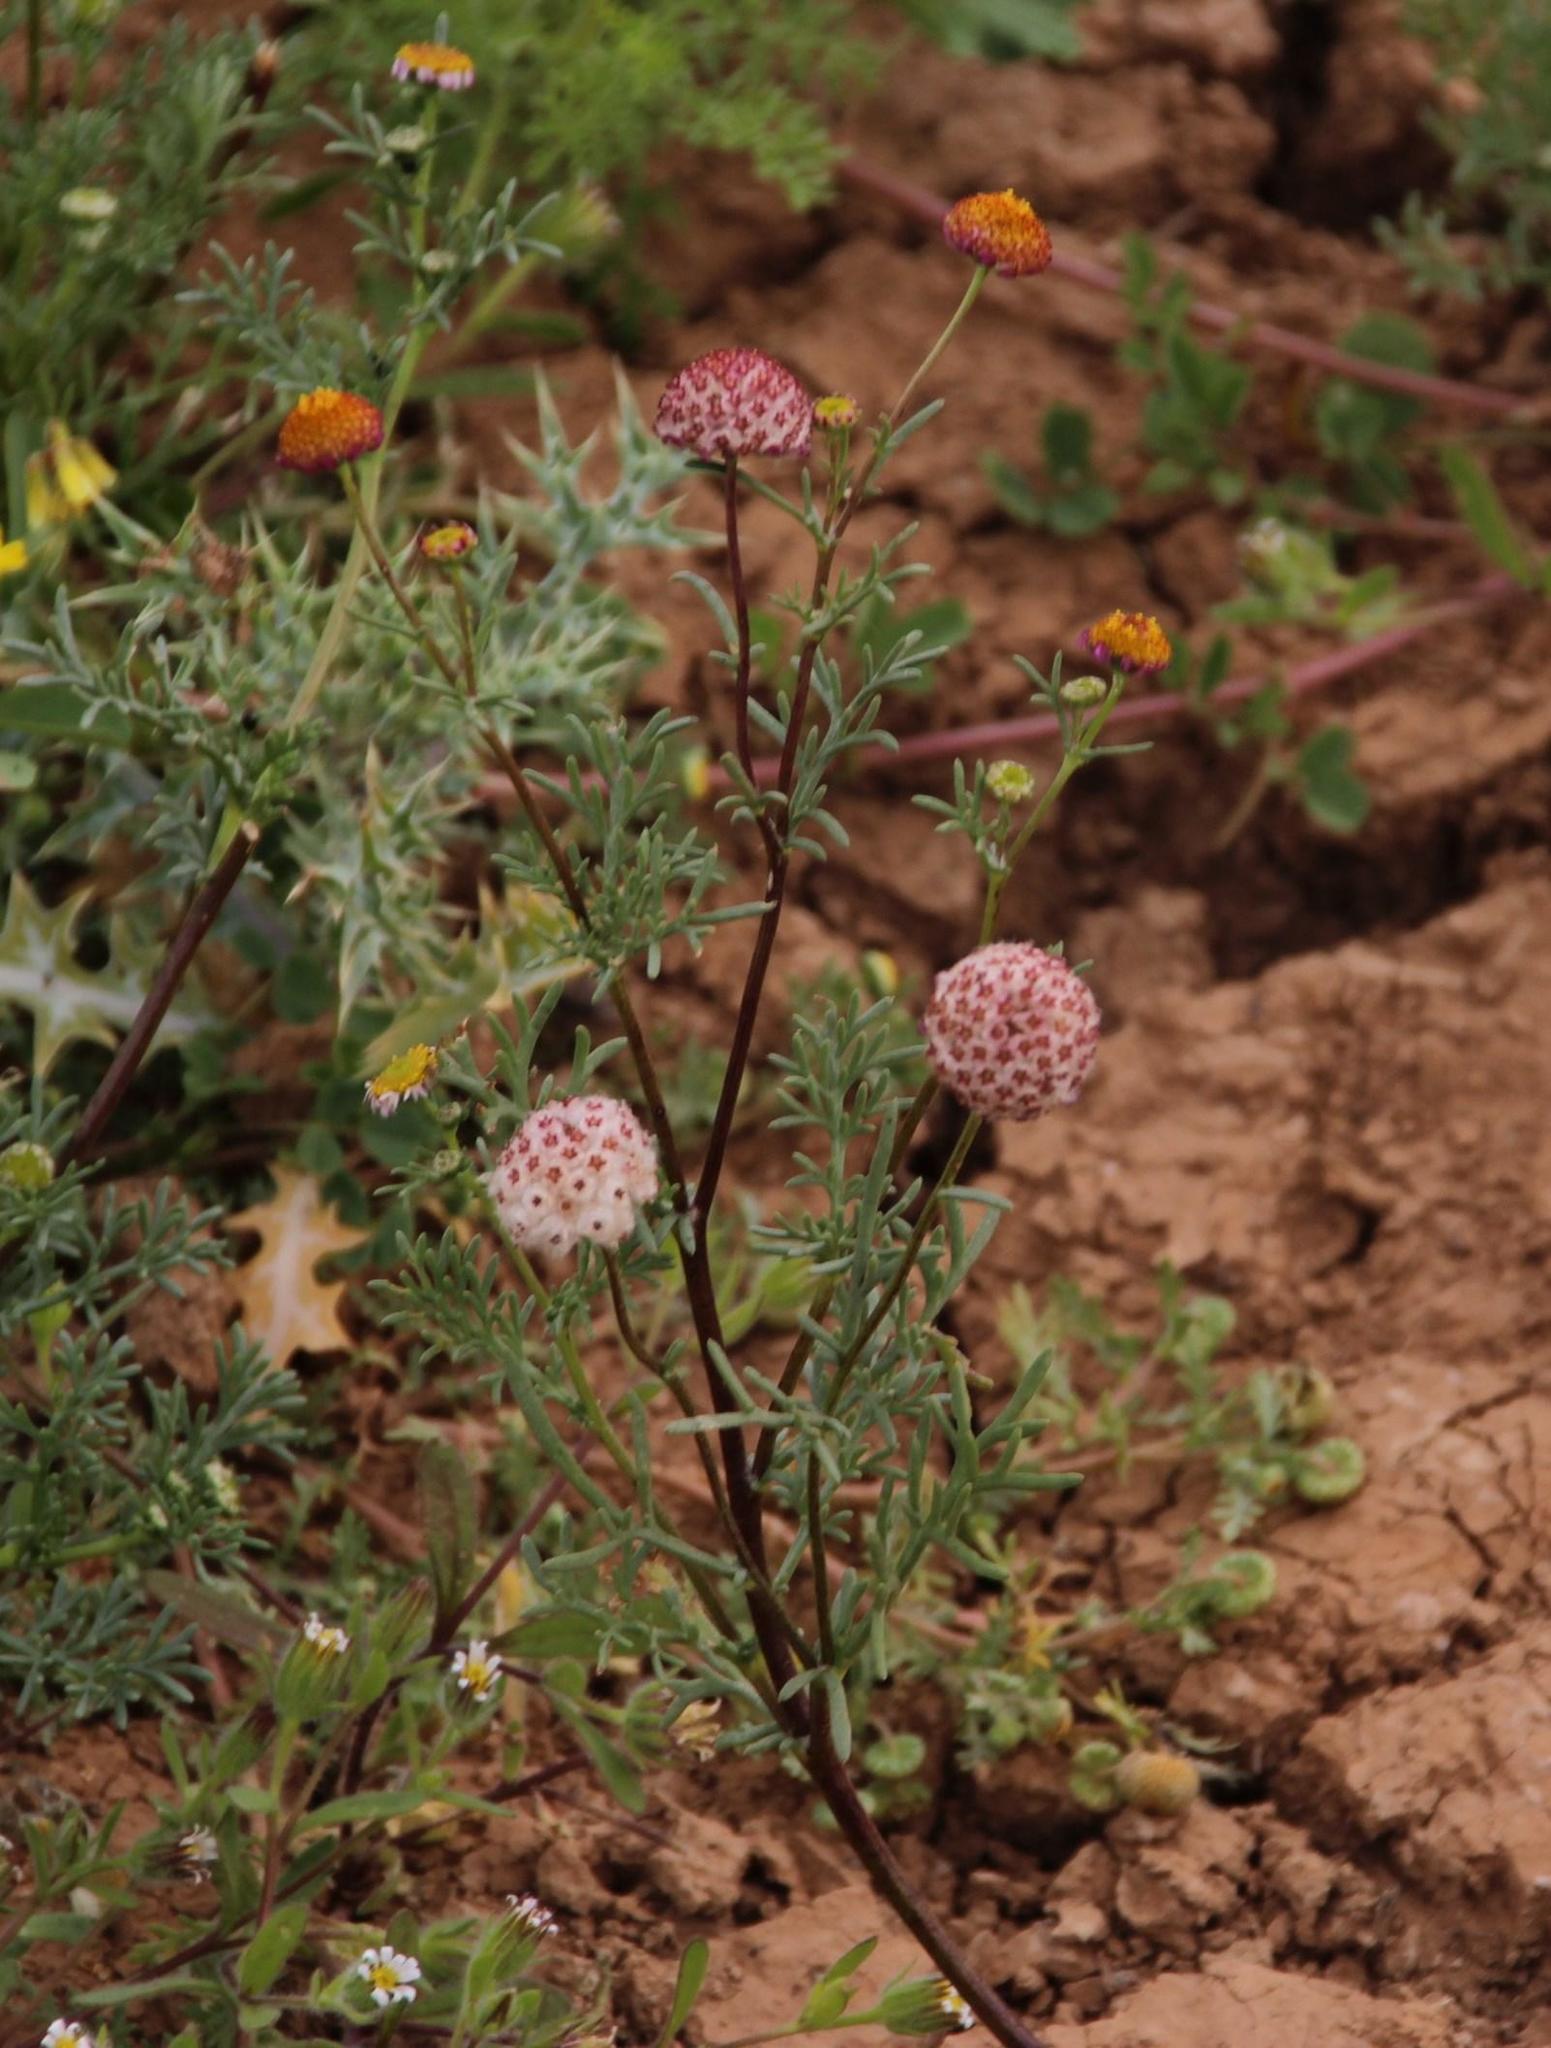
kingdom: Plantae
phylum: Tracheophyta
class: Magnoliopsida
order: Asterales
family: Asteraceae
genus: Lasiospermum
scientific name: Lasiospermum brachyglossum
